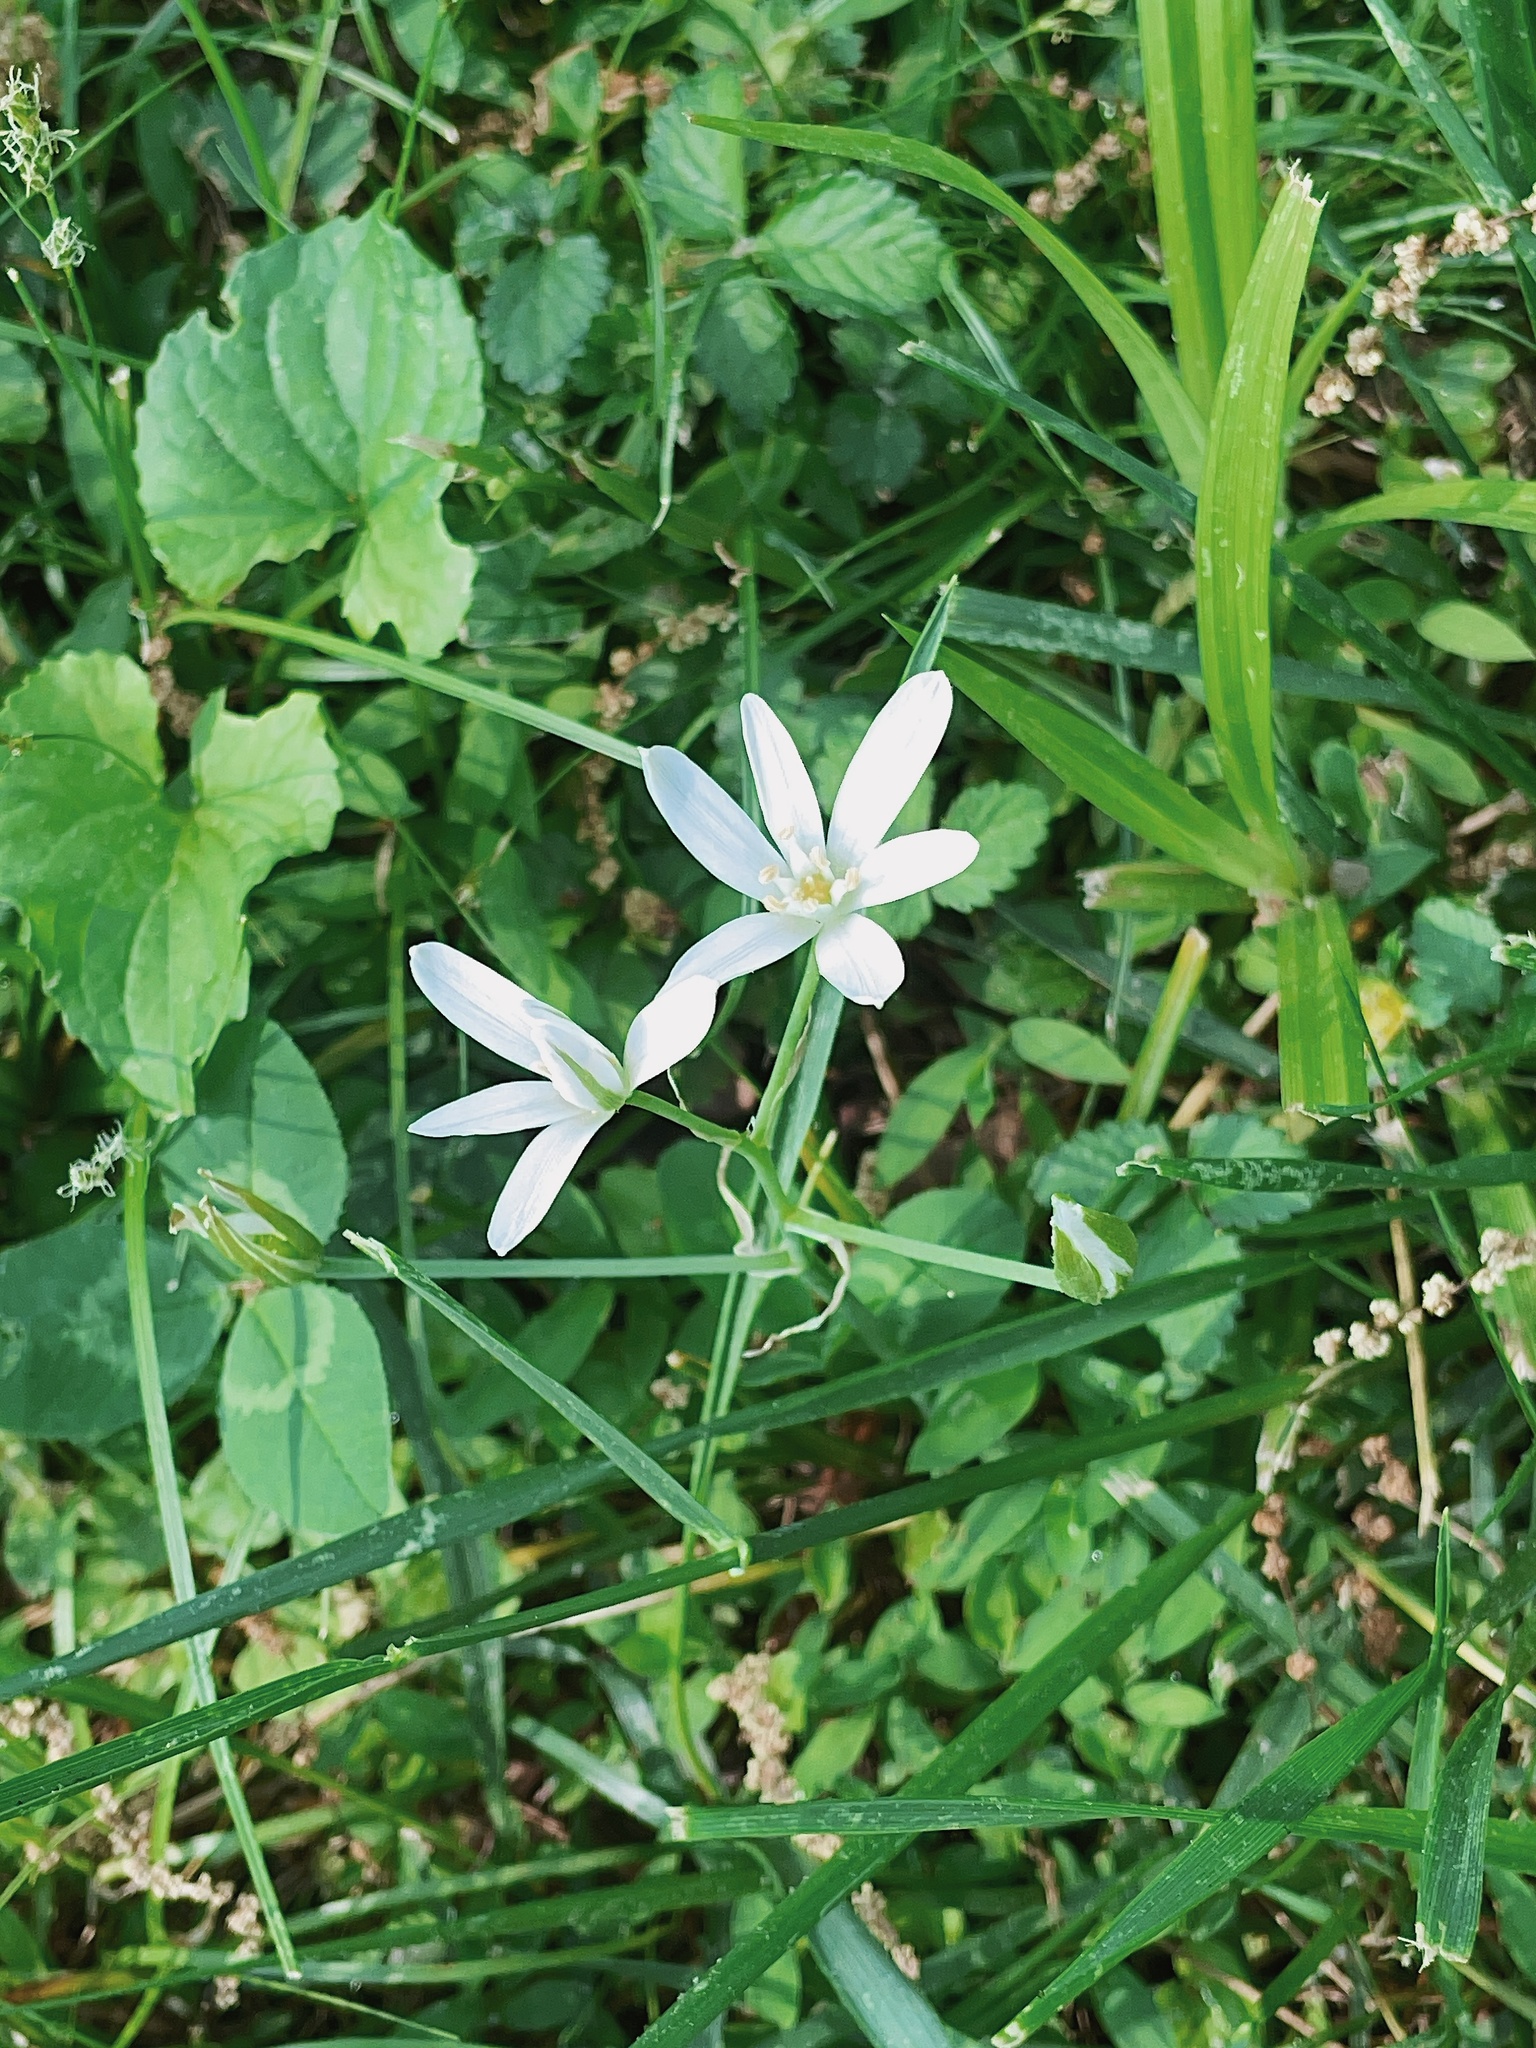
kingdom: Plantae
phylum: Tracheophyta
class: Liliopsida
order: Asparagales
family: Asparagaceae
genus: Ornithogalum
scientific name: Ornithogalum umbellatum
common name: Garden star-of-bethlehem
